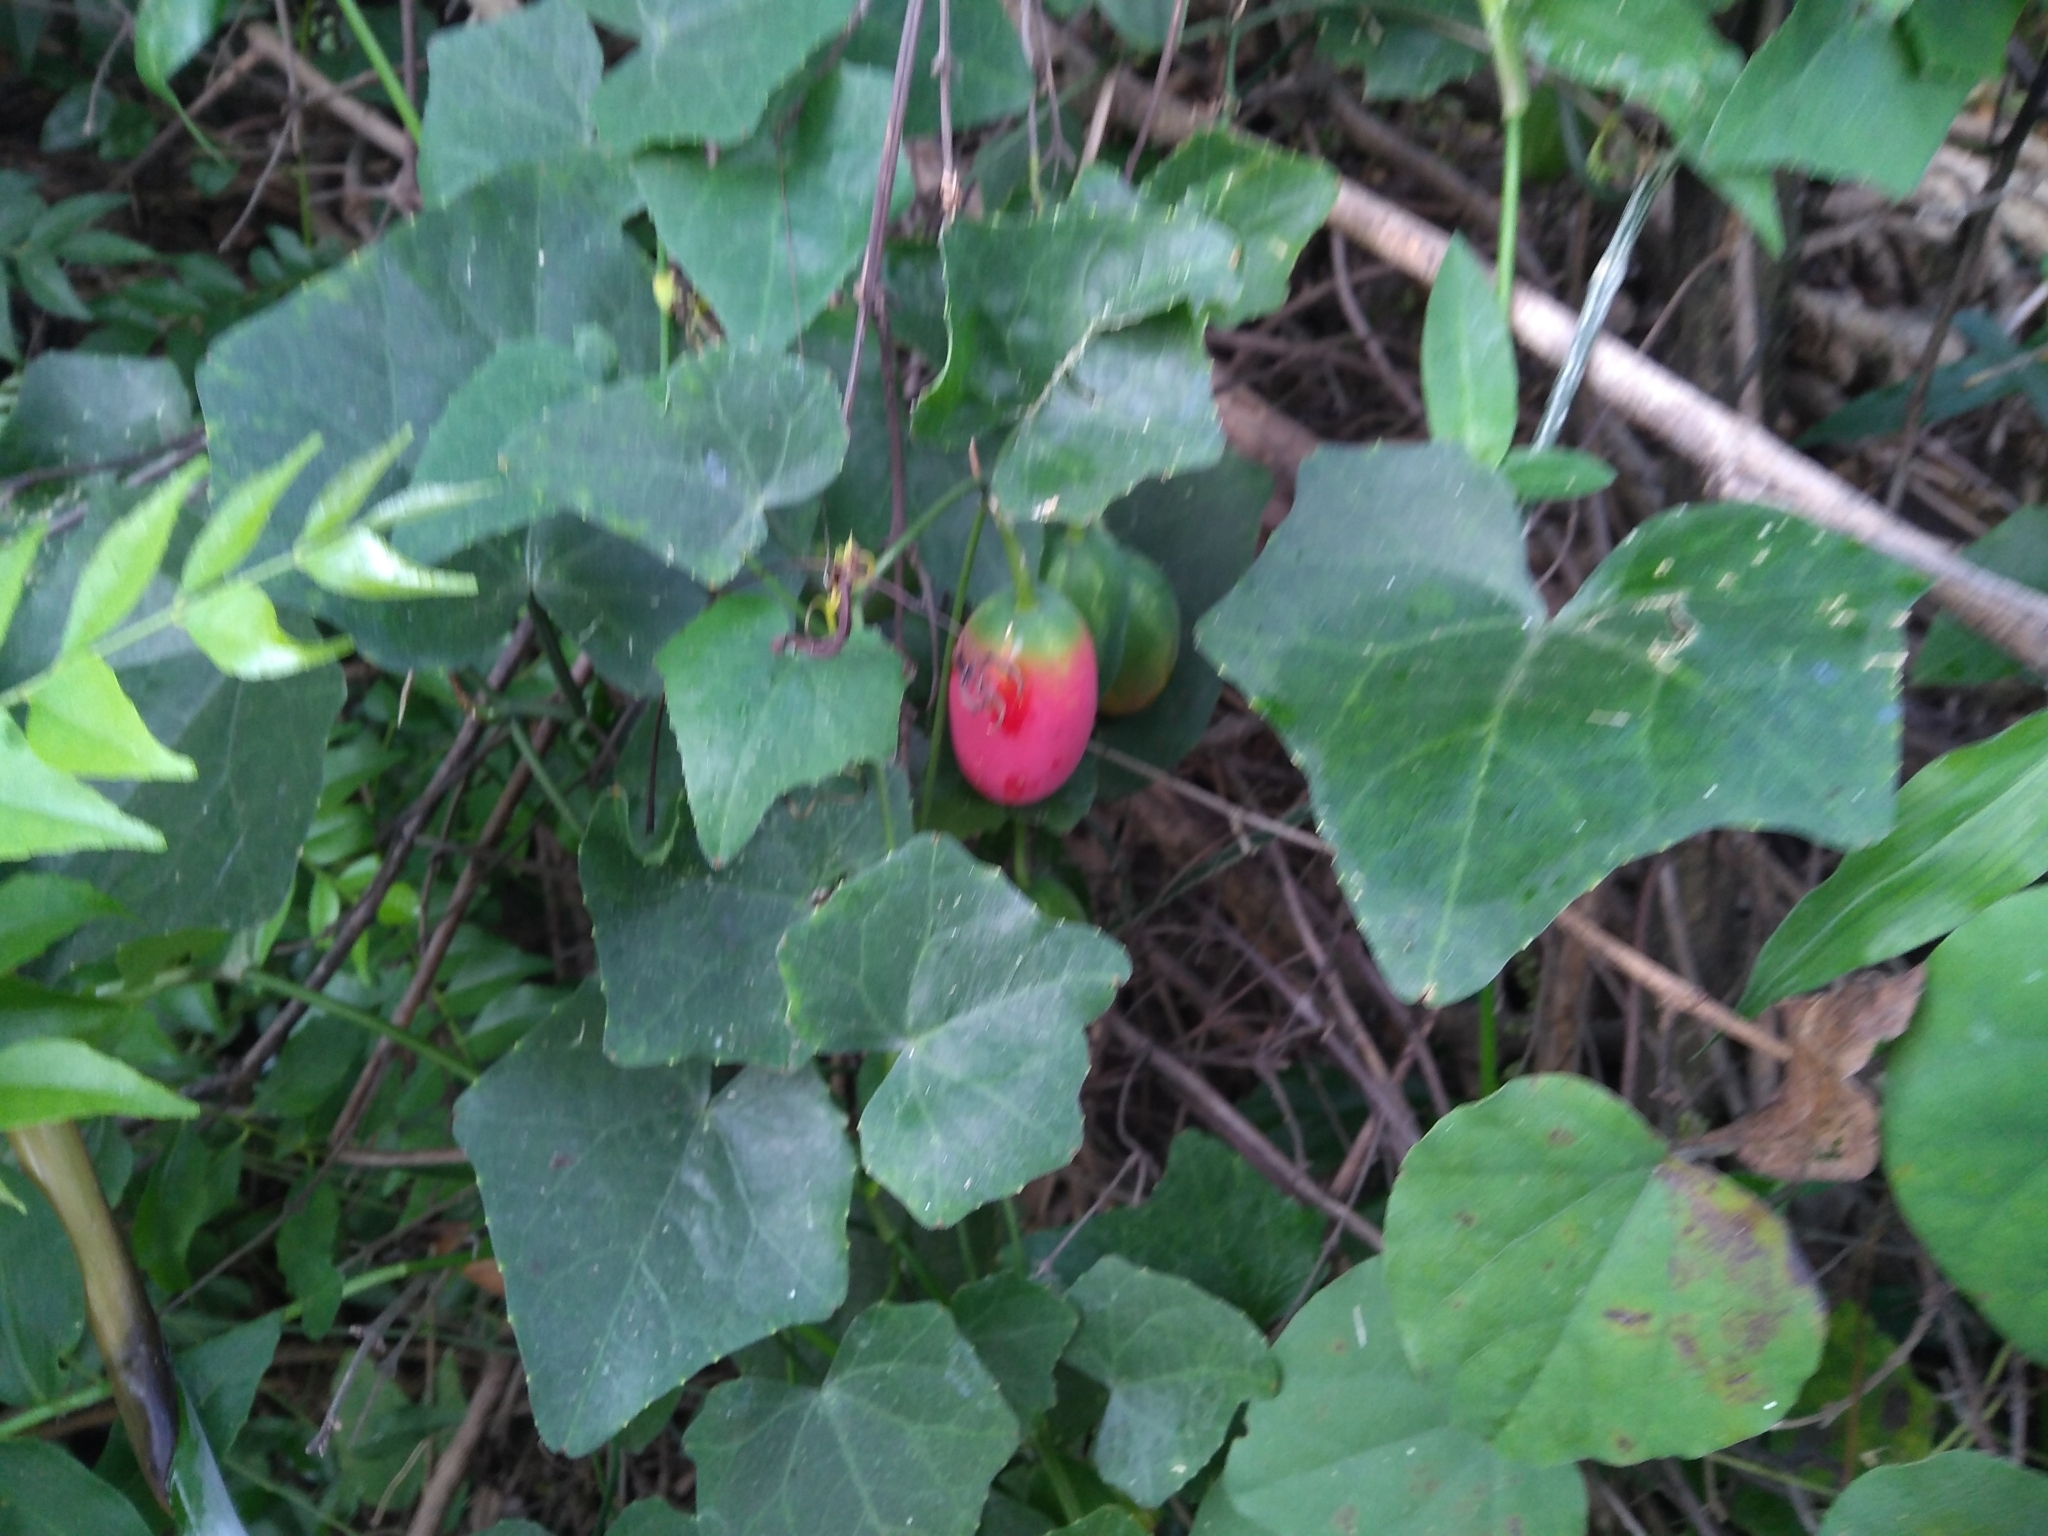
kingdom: Plantae
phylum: Tracheophyta
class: Magnoliopsida
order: Cucurbitales
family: Cucurbitaceae
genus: Coccinia
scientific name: Coccinia grandis
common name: Ivy gourd
